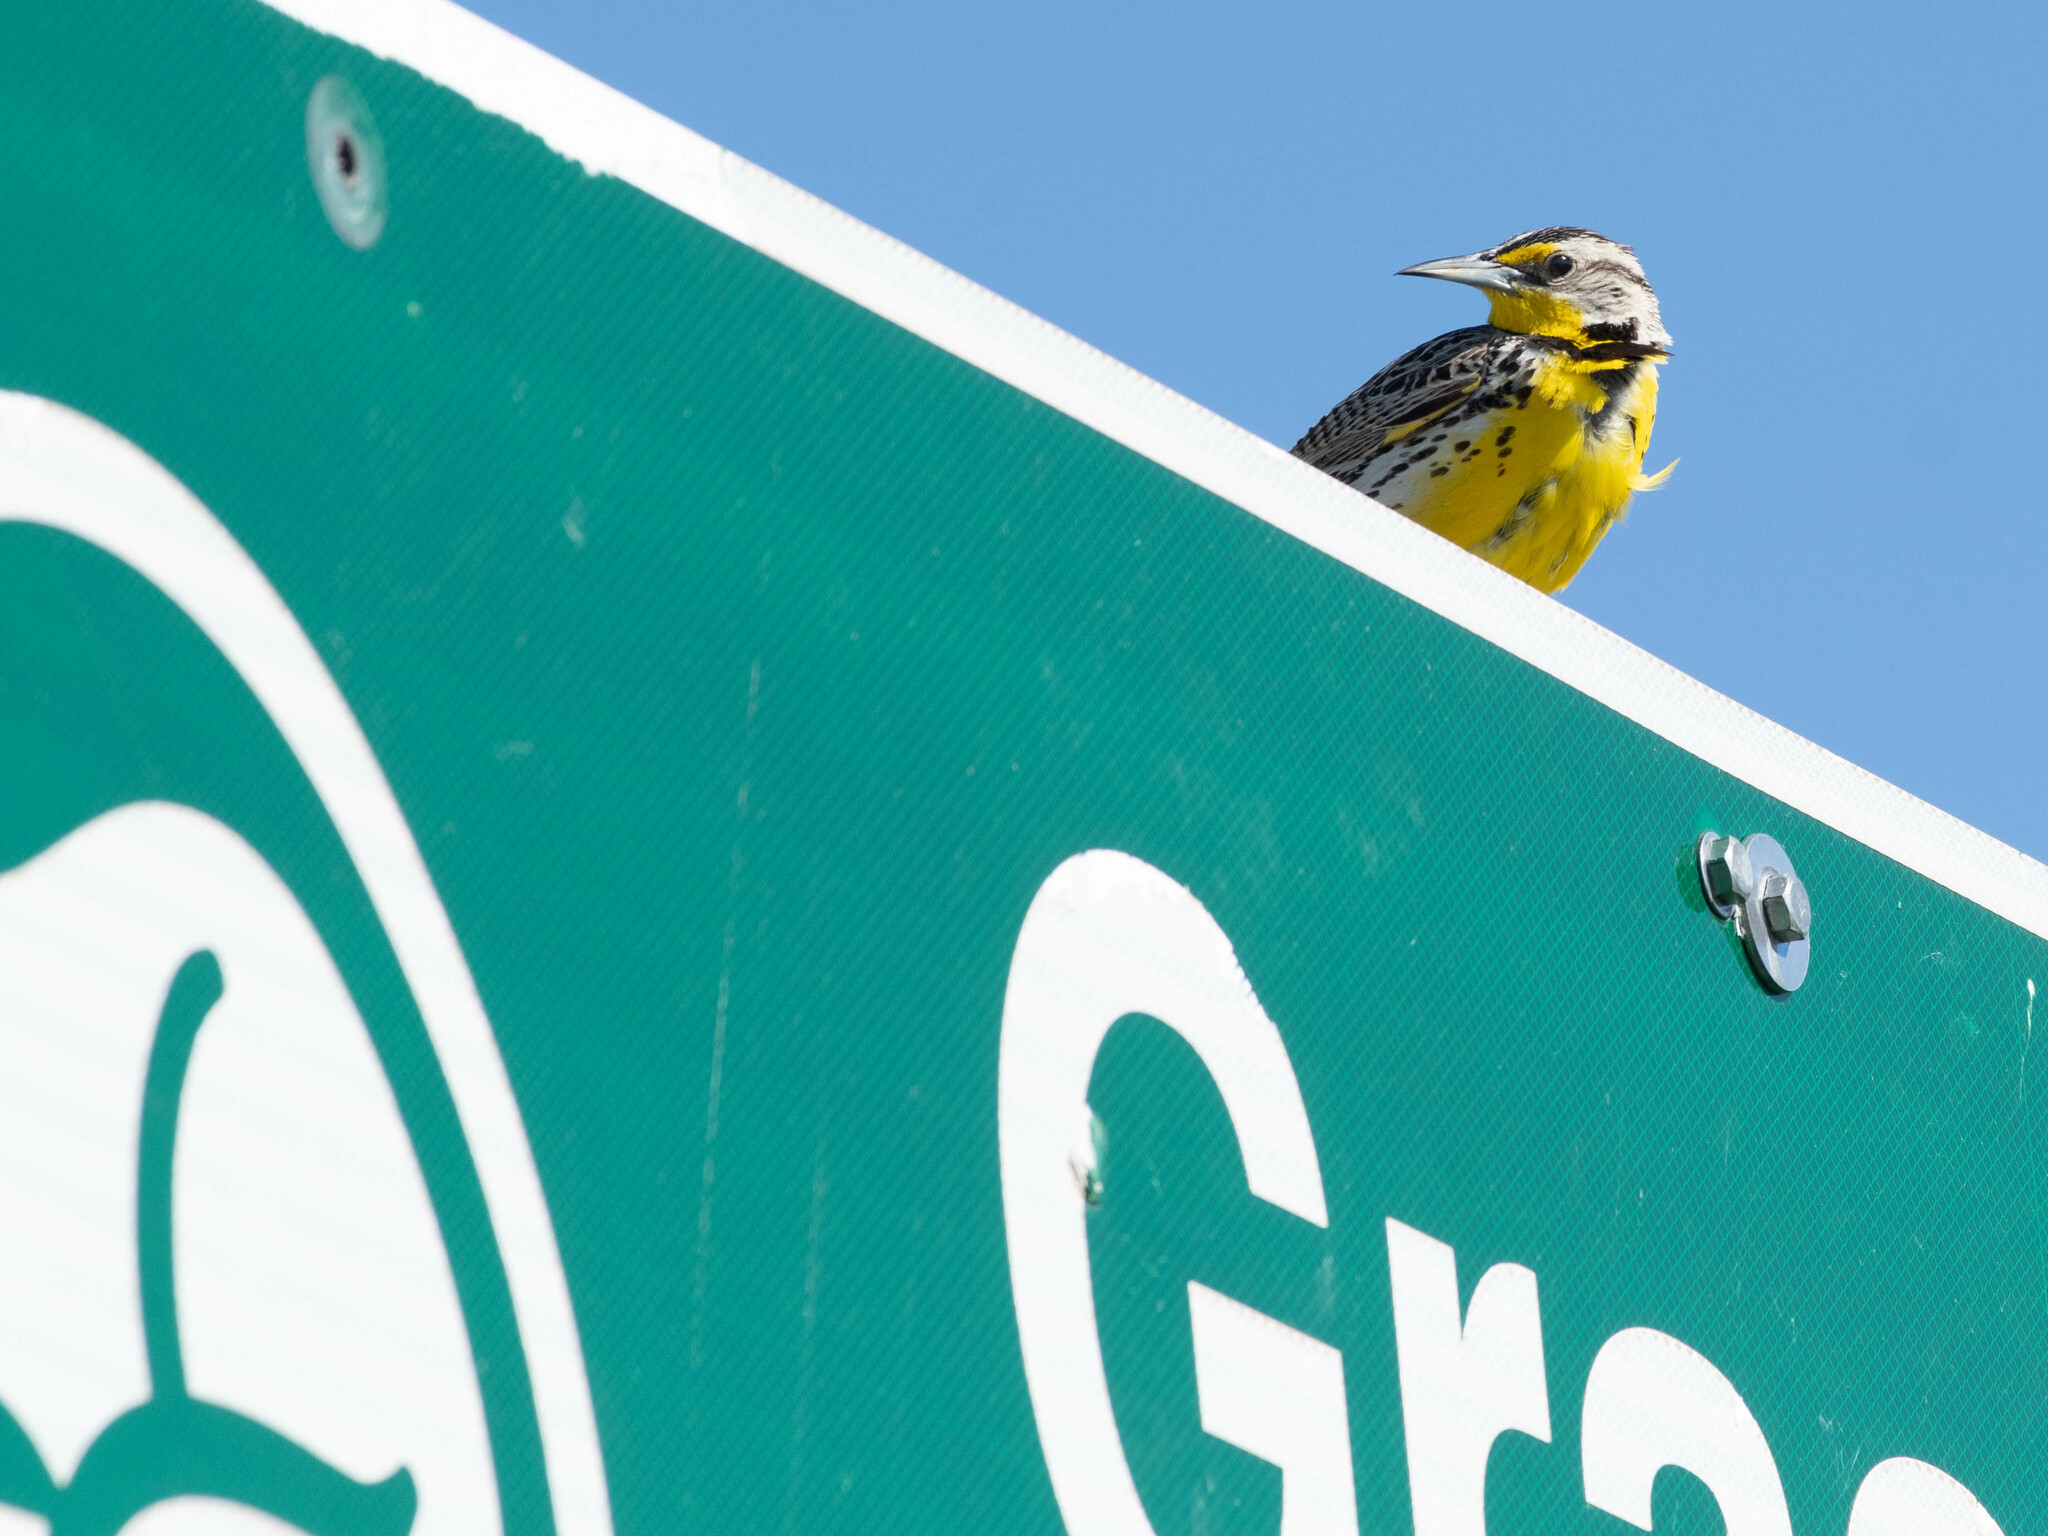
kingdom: Animalia
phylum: Chordata
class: Aves
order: Passeriformes
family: Icteridae
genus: Sturnella
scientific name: Sturnella neglecta
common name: Western meadowlark
